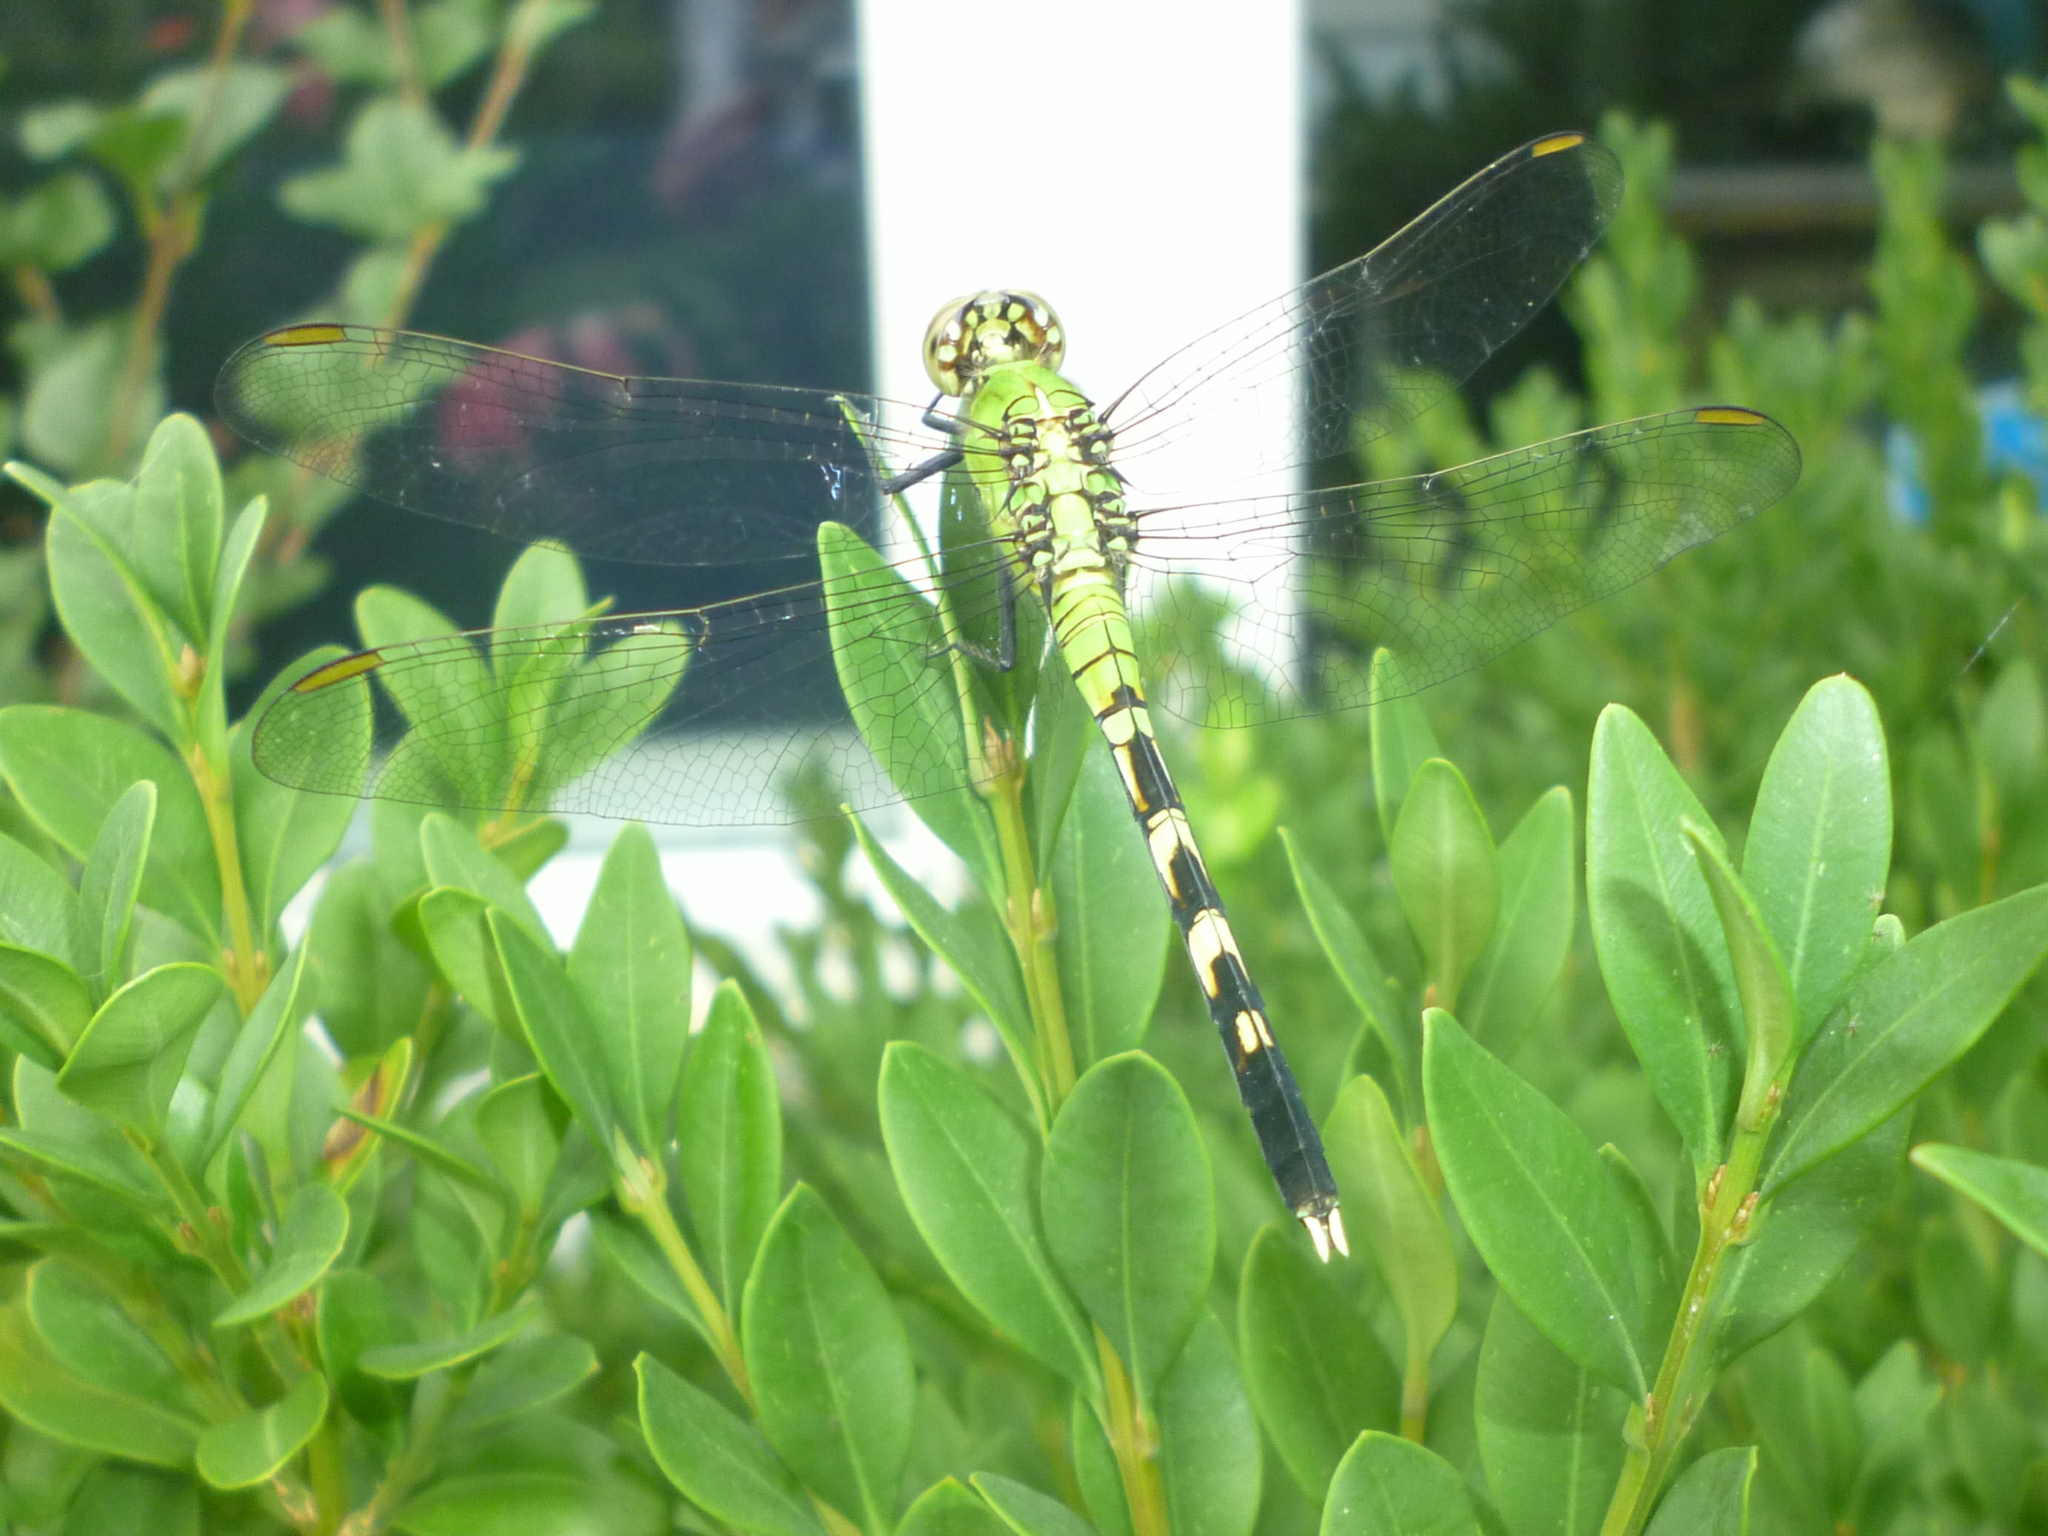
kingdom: Animalia
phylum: Arthropoda
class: Insecta
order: Odonata
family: Libellulidae
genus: Erythemis
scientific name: Erythemis simplicicollis
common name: Eastern pondhawk
